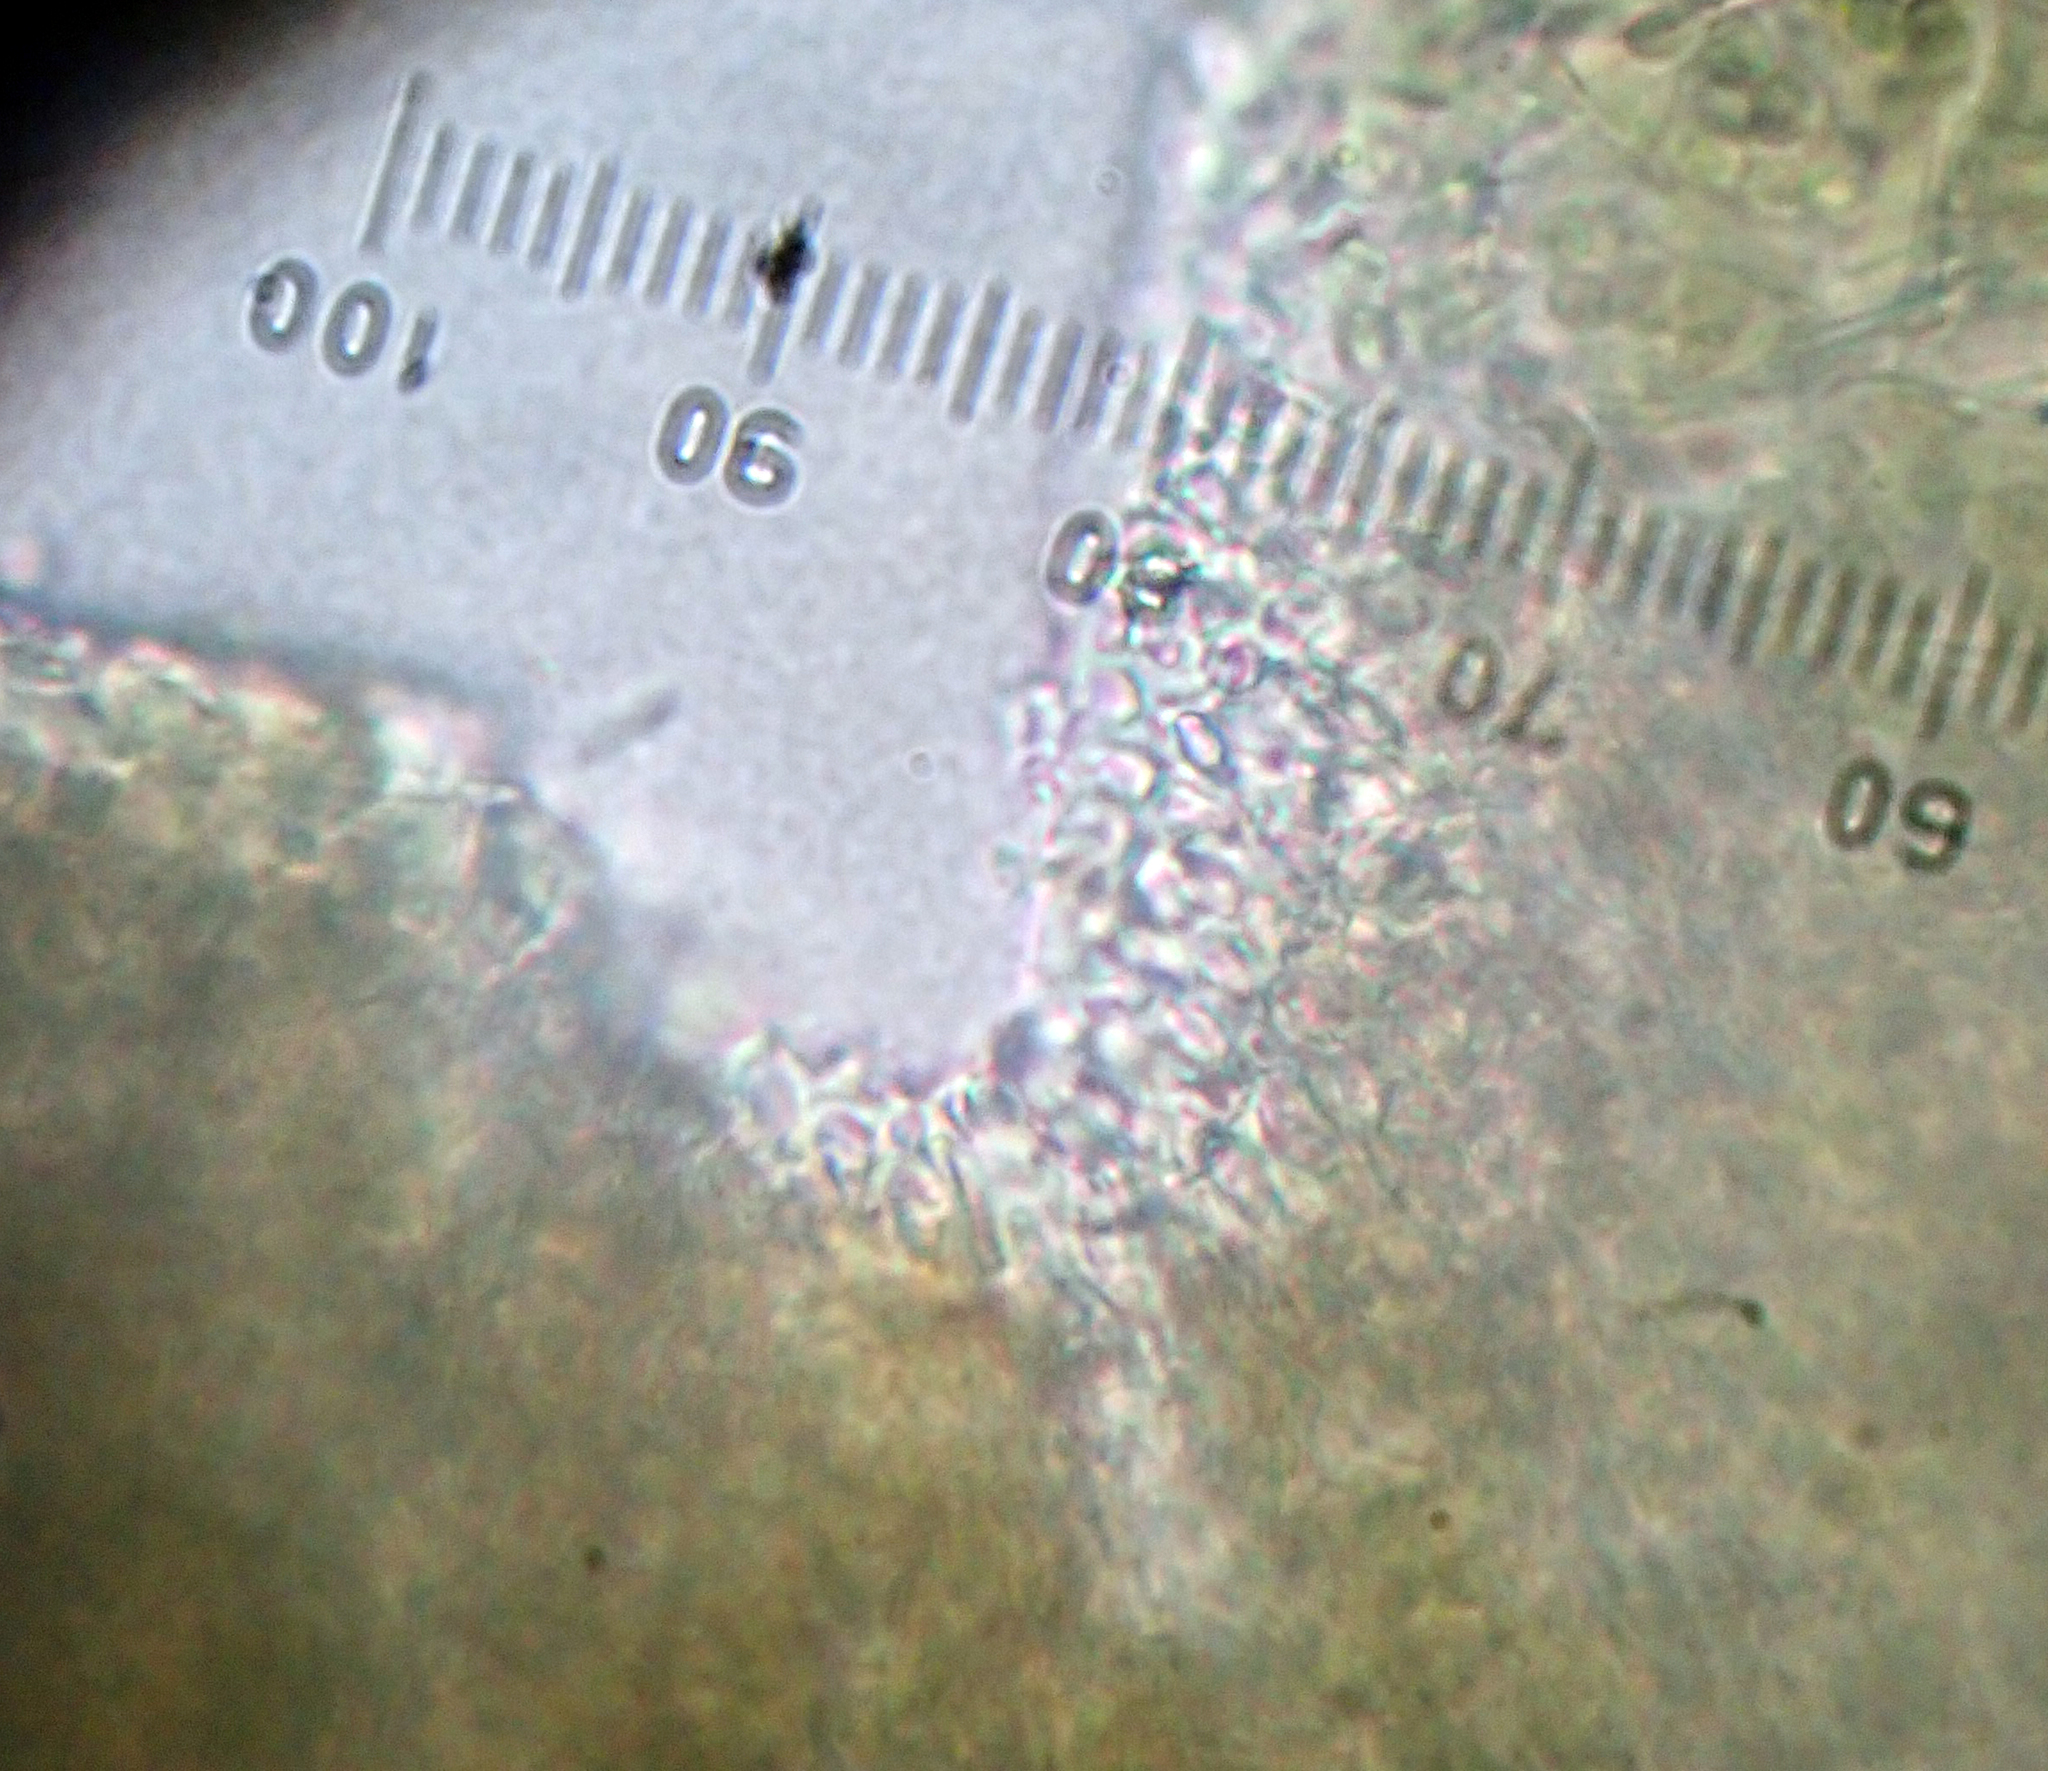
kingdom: Fungi
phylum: Ascomycota
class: Lecanoromycetes
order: Peltigerales
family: Collemataceae
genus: Collema
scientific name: Collema laeve
